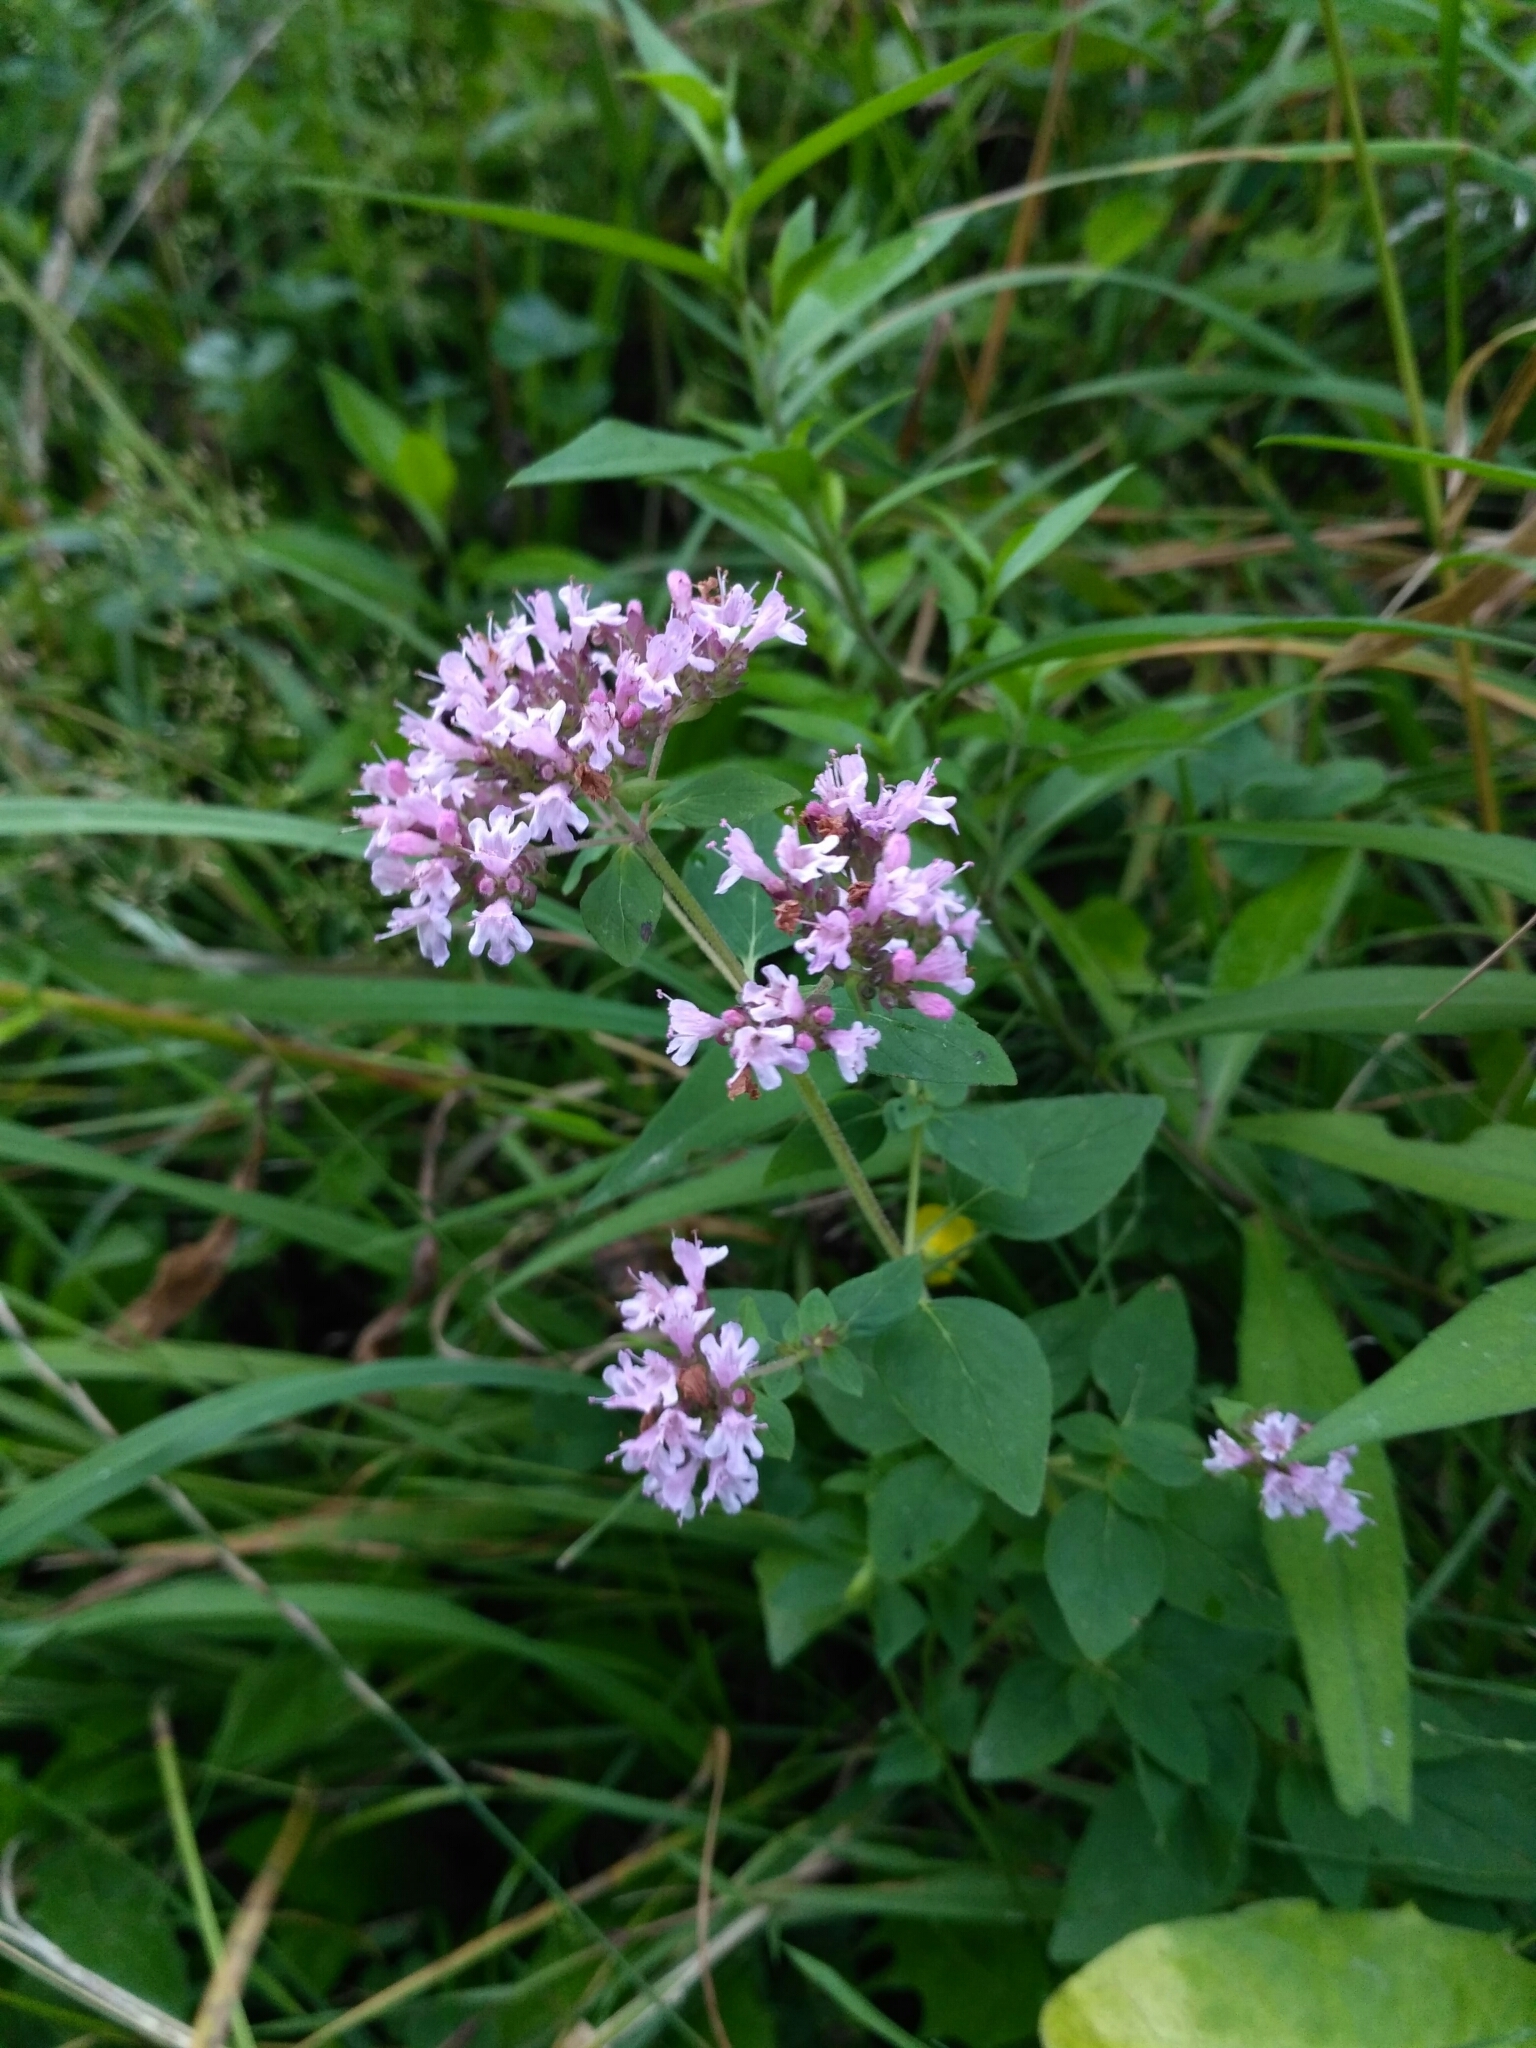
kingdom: Plantae
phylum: Tracheophyta
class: Magnoliopsida
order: Lamiales
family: Lamiaceae
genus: Origanum
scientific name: Origanum vulgare
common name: Wild marjoram
